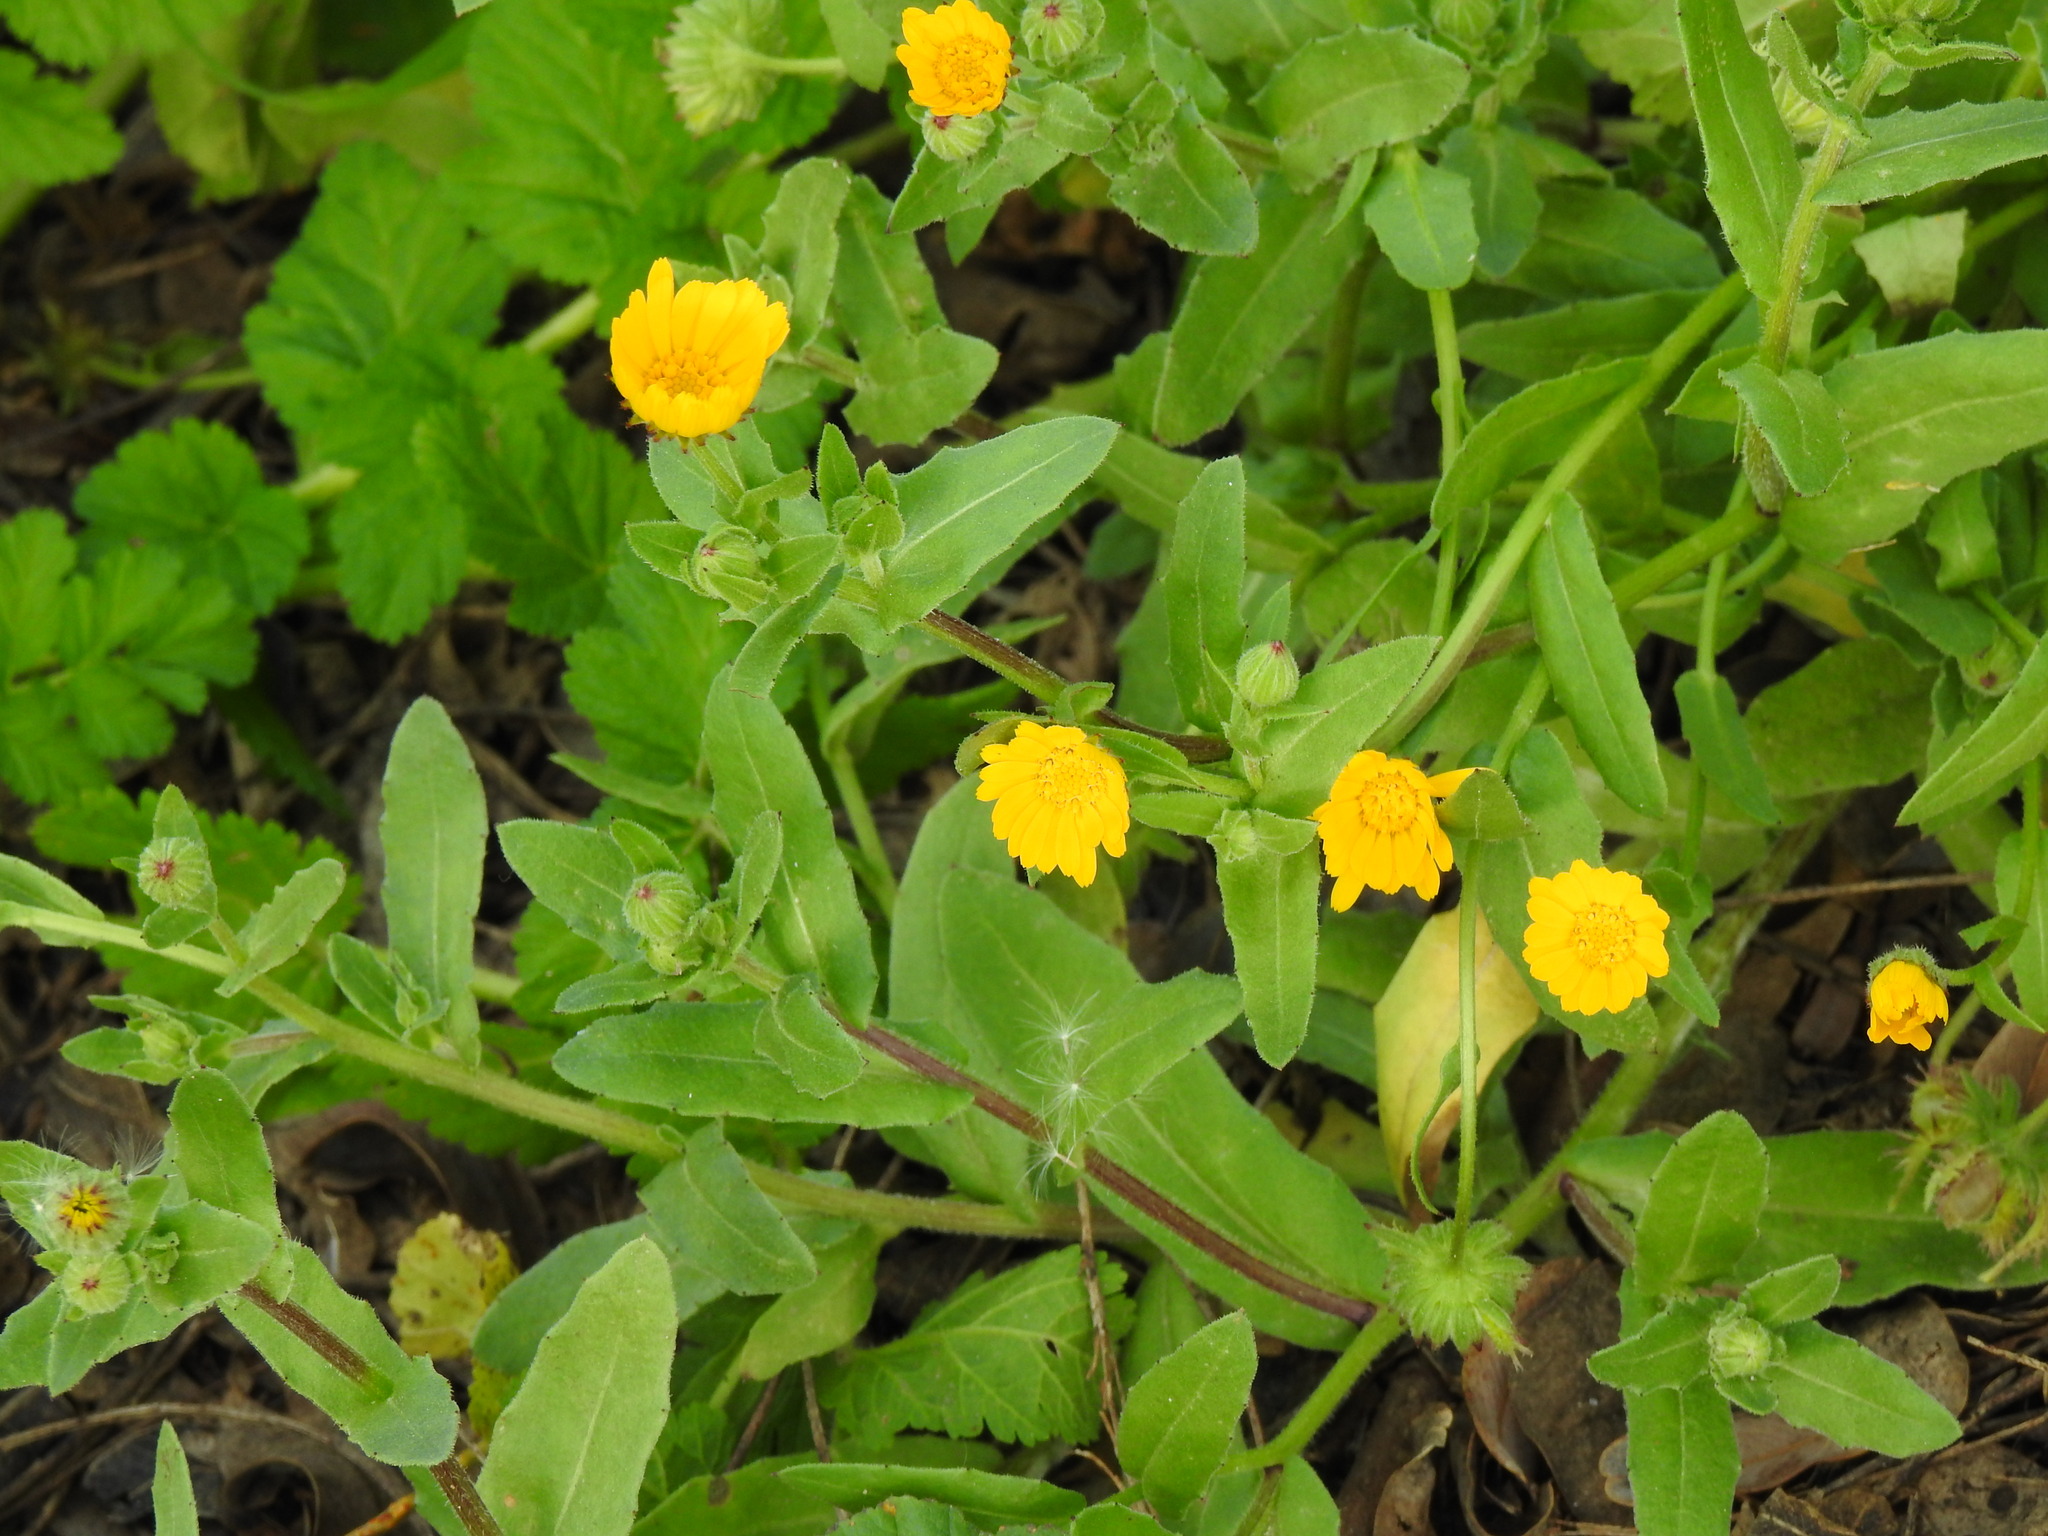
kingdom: Plantae
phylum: Tracheophyta
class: Magnoliopsida
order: Asterales
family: Asteraceae
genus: Calendula
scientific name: Calendula arvensis
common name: Field marigold
